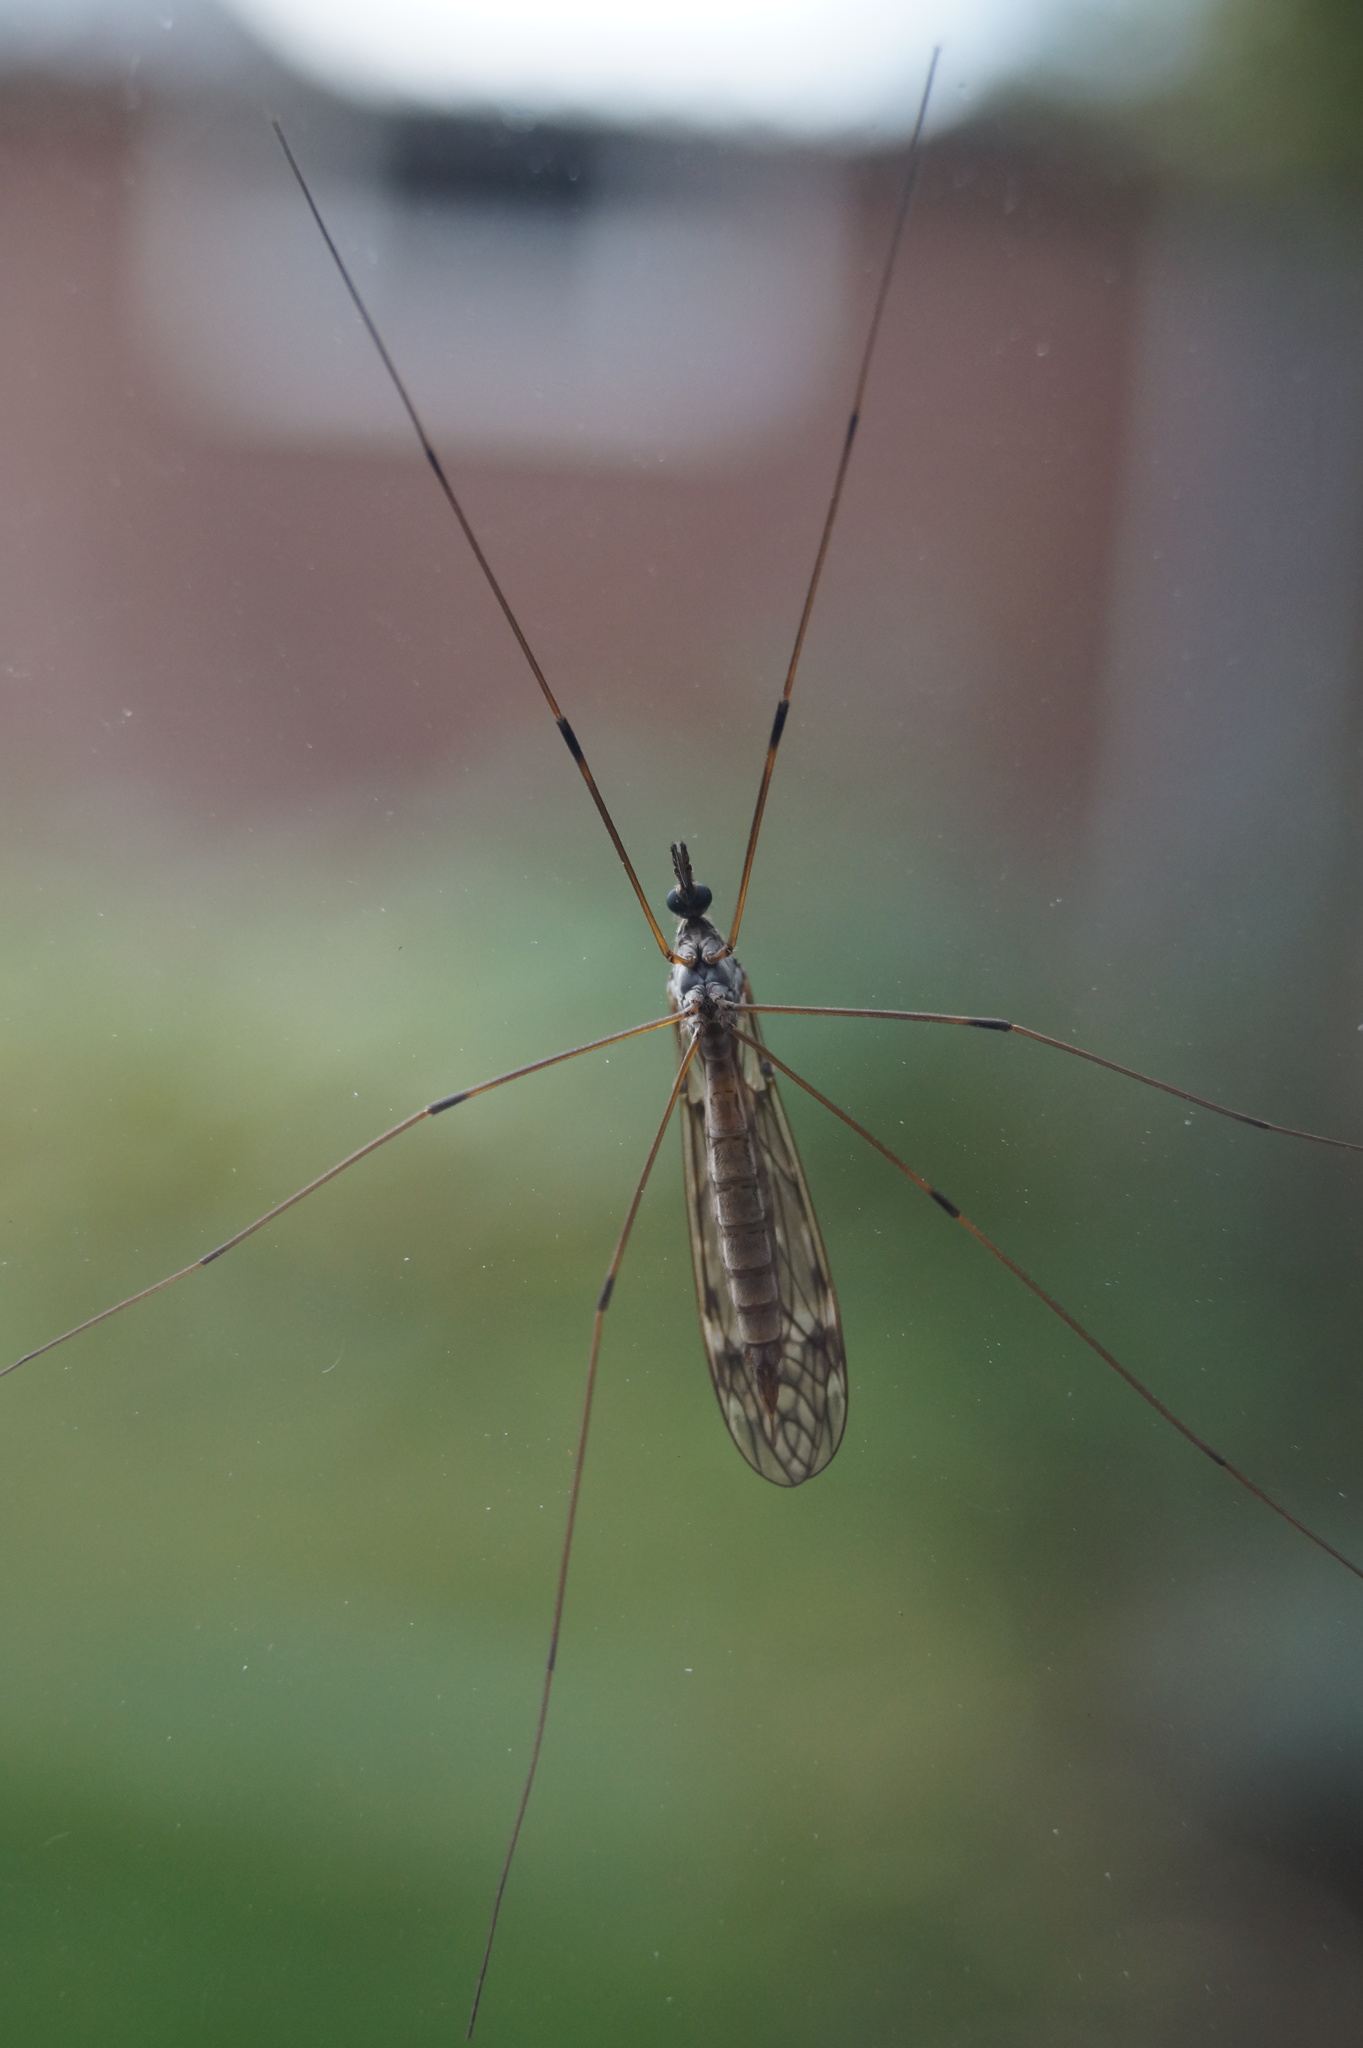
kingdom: Animalia
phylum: Arthropoda
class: Insecta
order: Diptera
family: Tipulidae
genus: Tipula
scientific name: Tipula confusa
